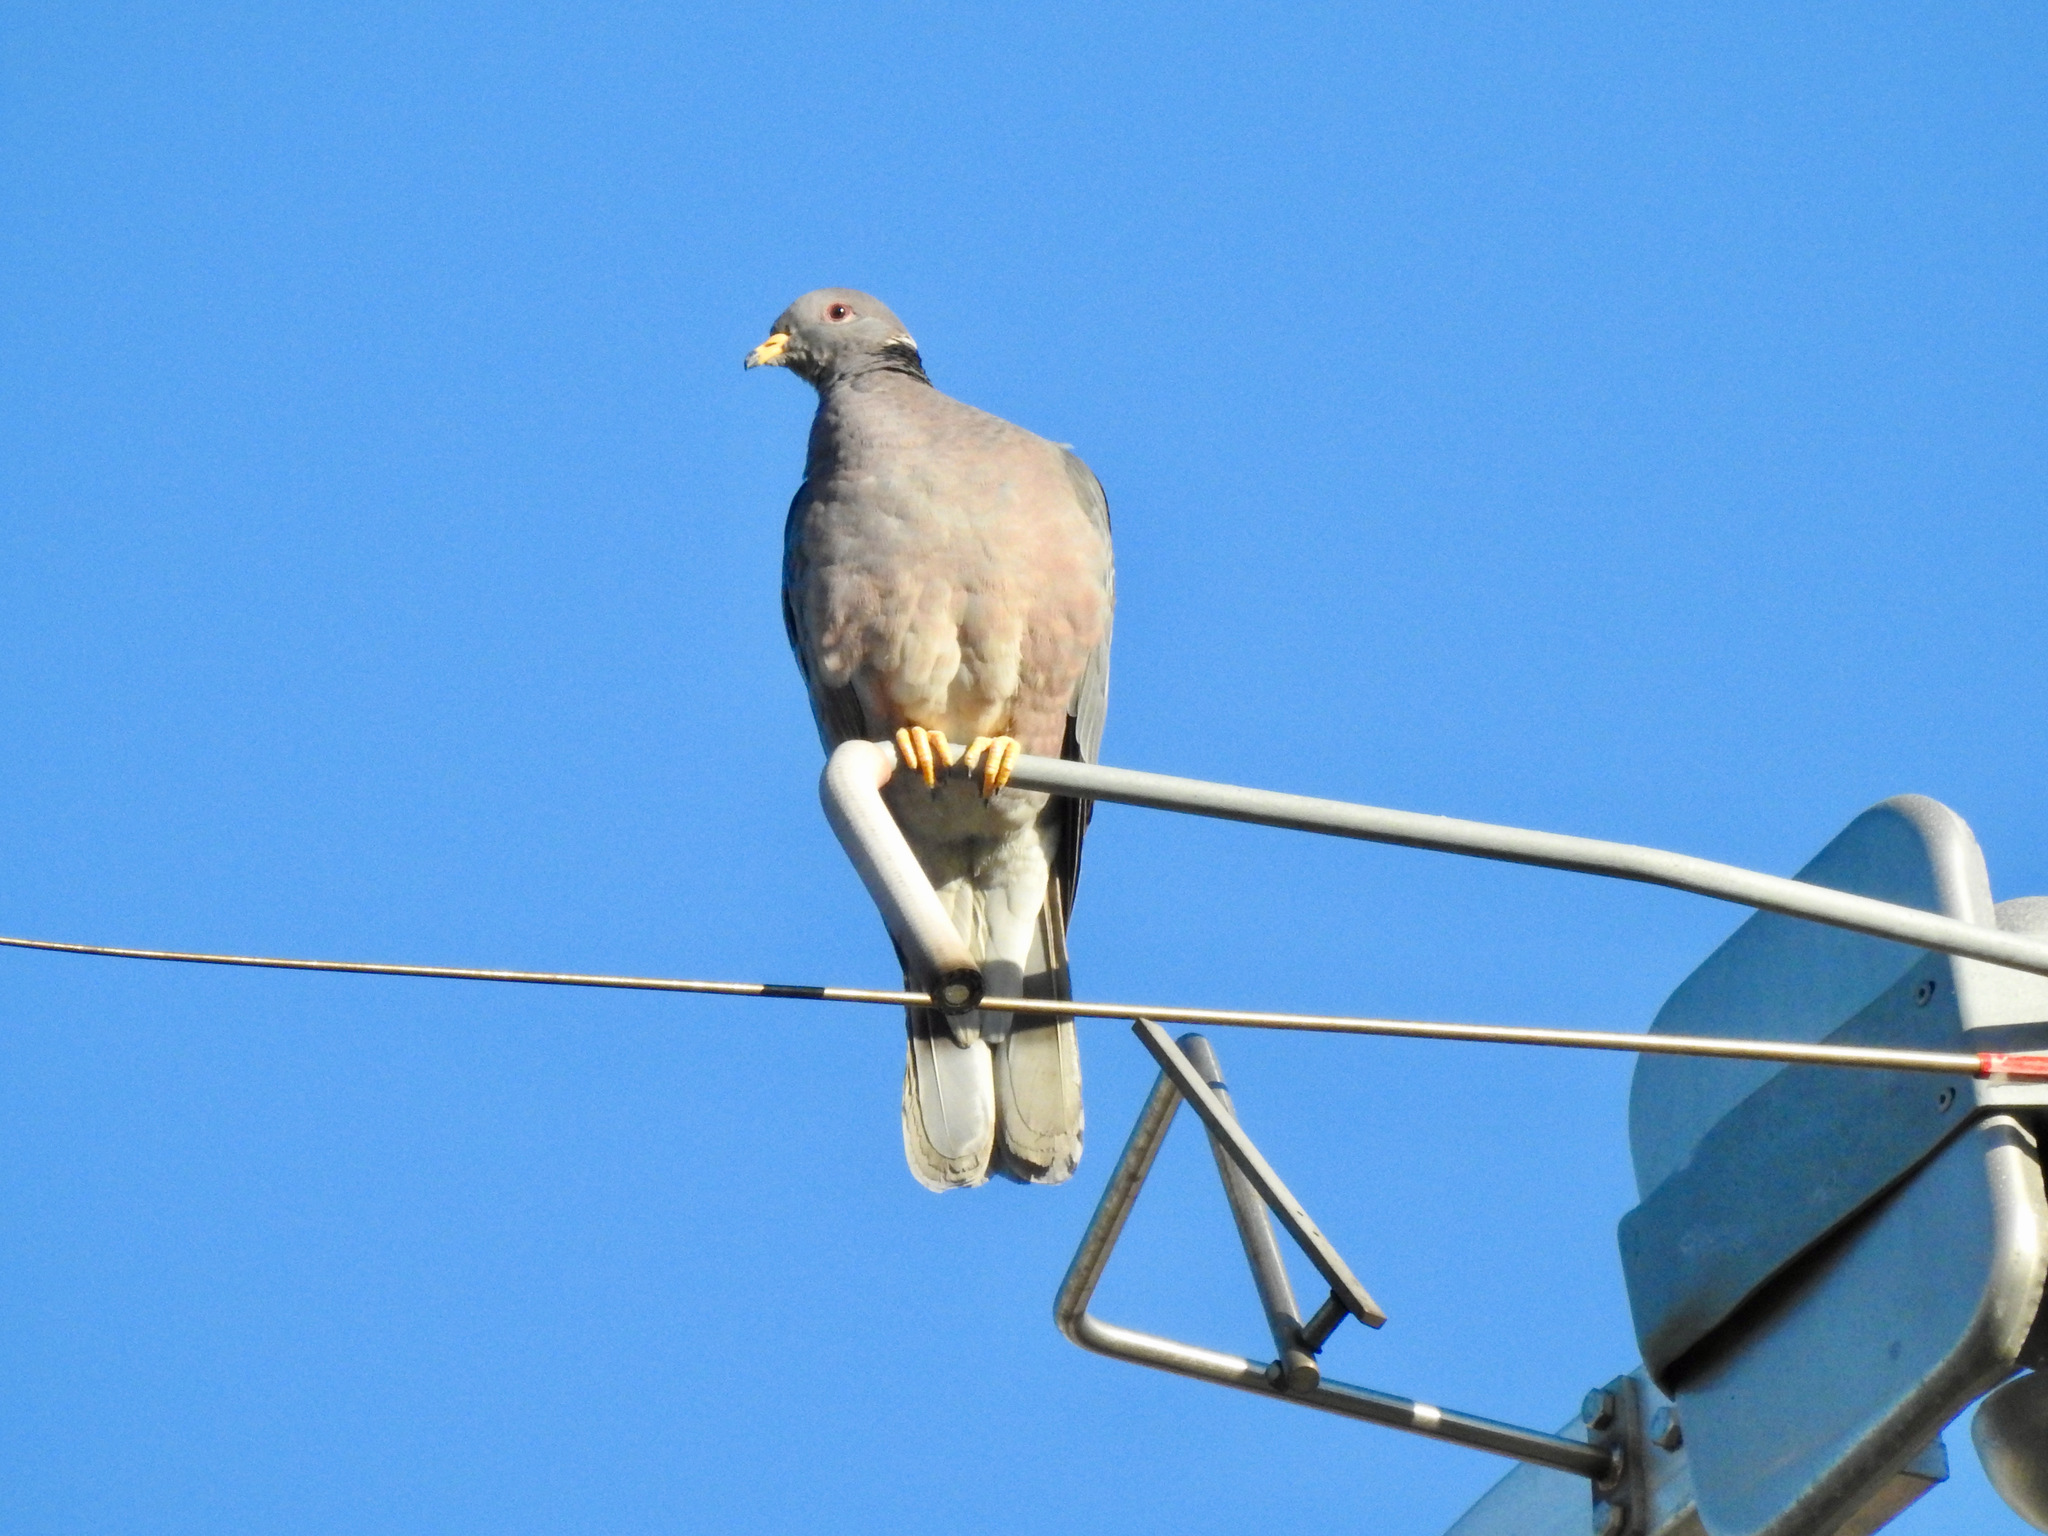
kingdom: Animalia
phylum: Chordata
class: Aves
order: Columbiformes
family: Columbidae
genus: Patagioenas
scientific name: Patagioenas fasciata
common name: Band-tailed pigeon
